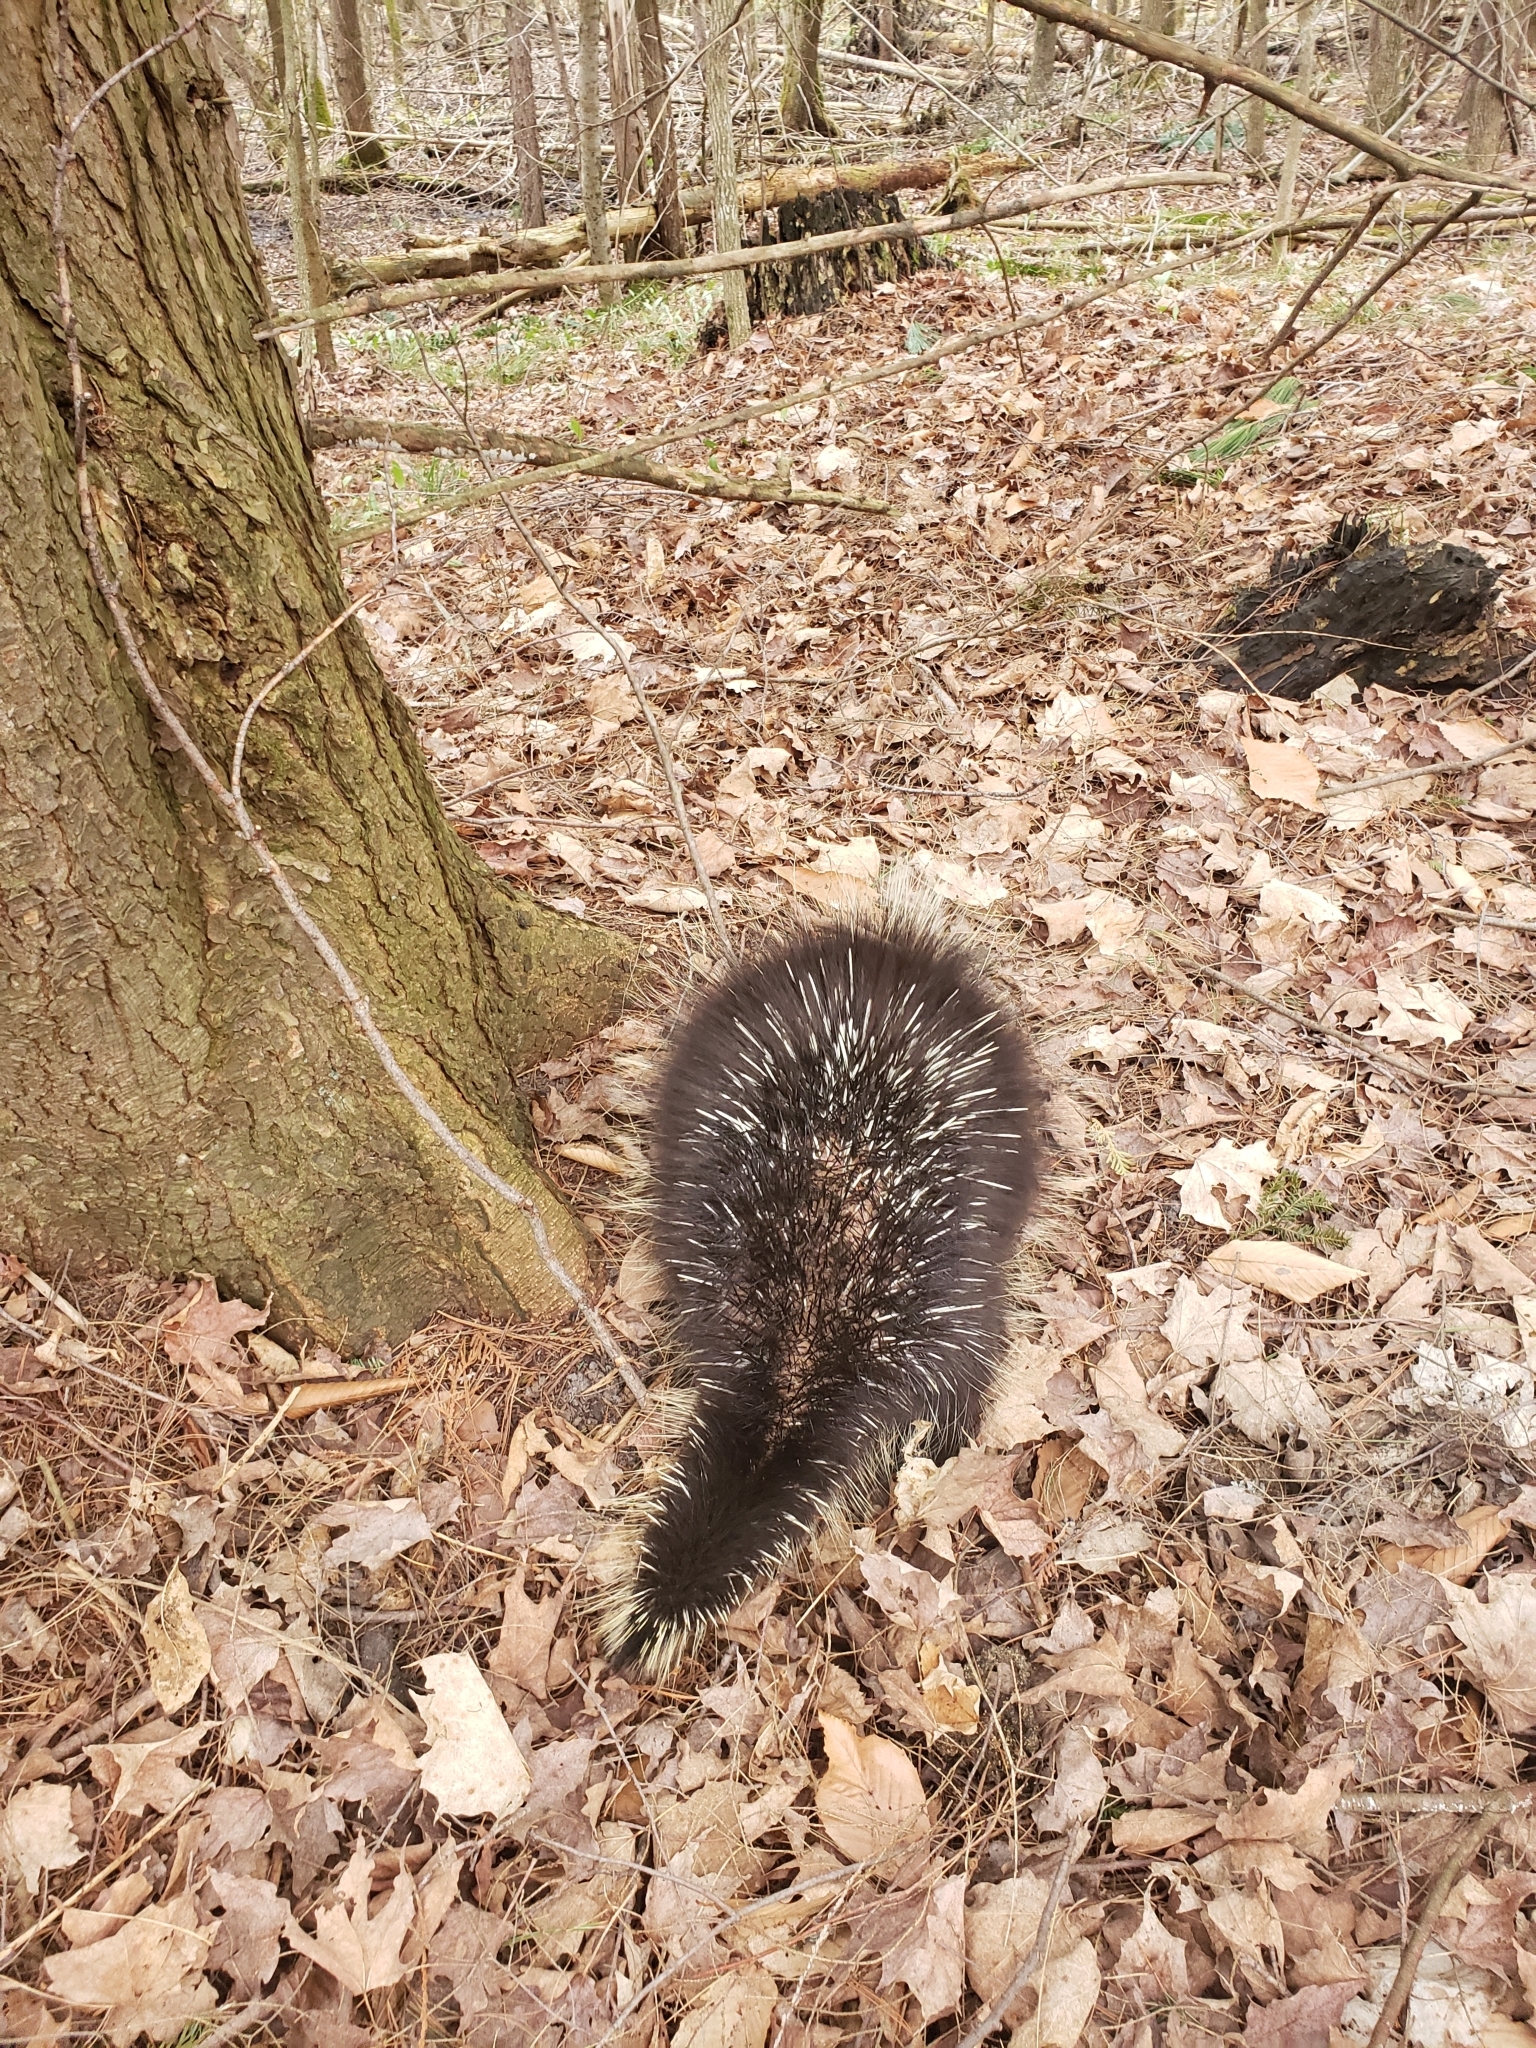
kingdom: Animalia
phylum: Chordata
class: Mammalia
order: Rodentia
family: Erethizontidae
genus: Erethizon
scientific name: Erethizon dorsatus
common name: North american porcupine
